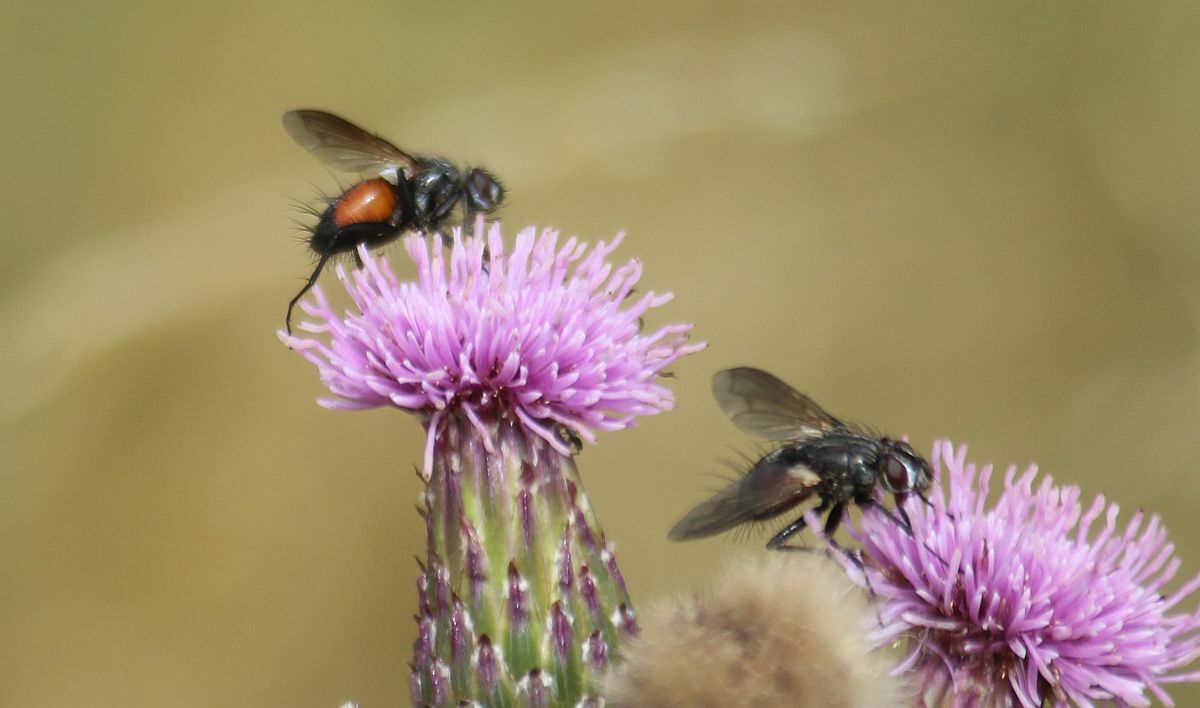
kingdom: Animalia
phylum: Arthropoda
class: Insecta
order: Diptera
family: Tachinidae
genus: Eriothrix
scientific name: Eriothrix rufomaculatus
